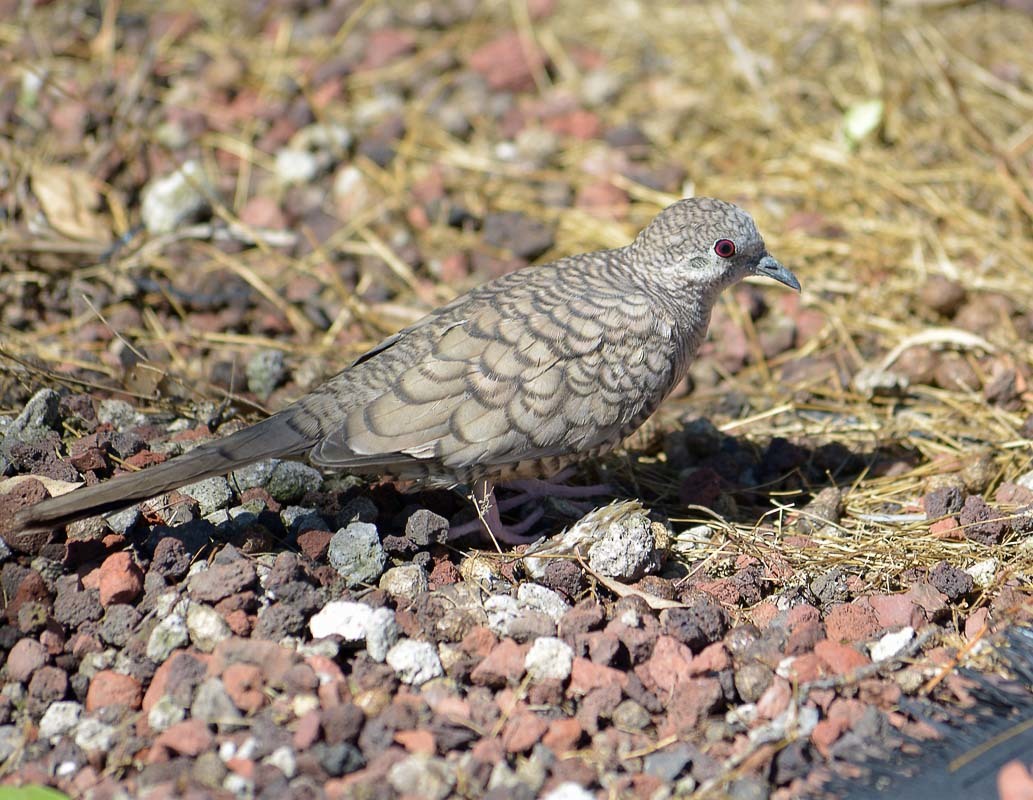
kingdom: Animalia
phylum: Chordata
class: Aves
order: Columbiformes
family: Columbidae
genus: Columbina
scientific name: Columbina inca
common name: Inca dove
